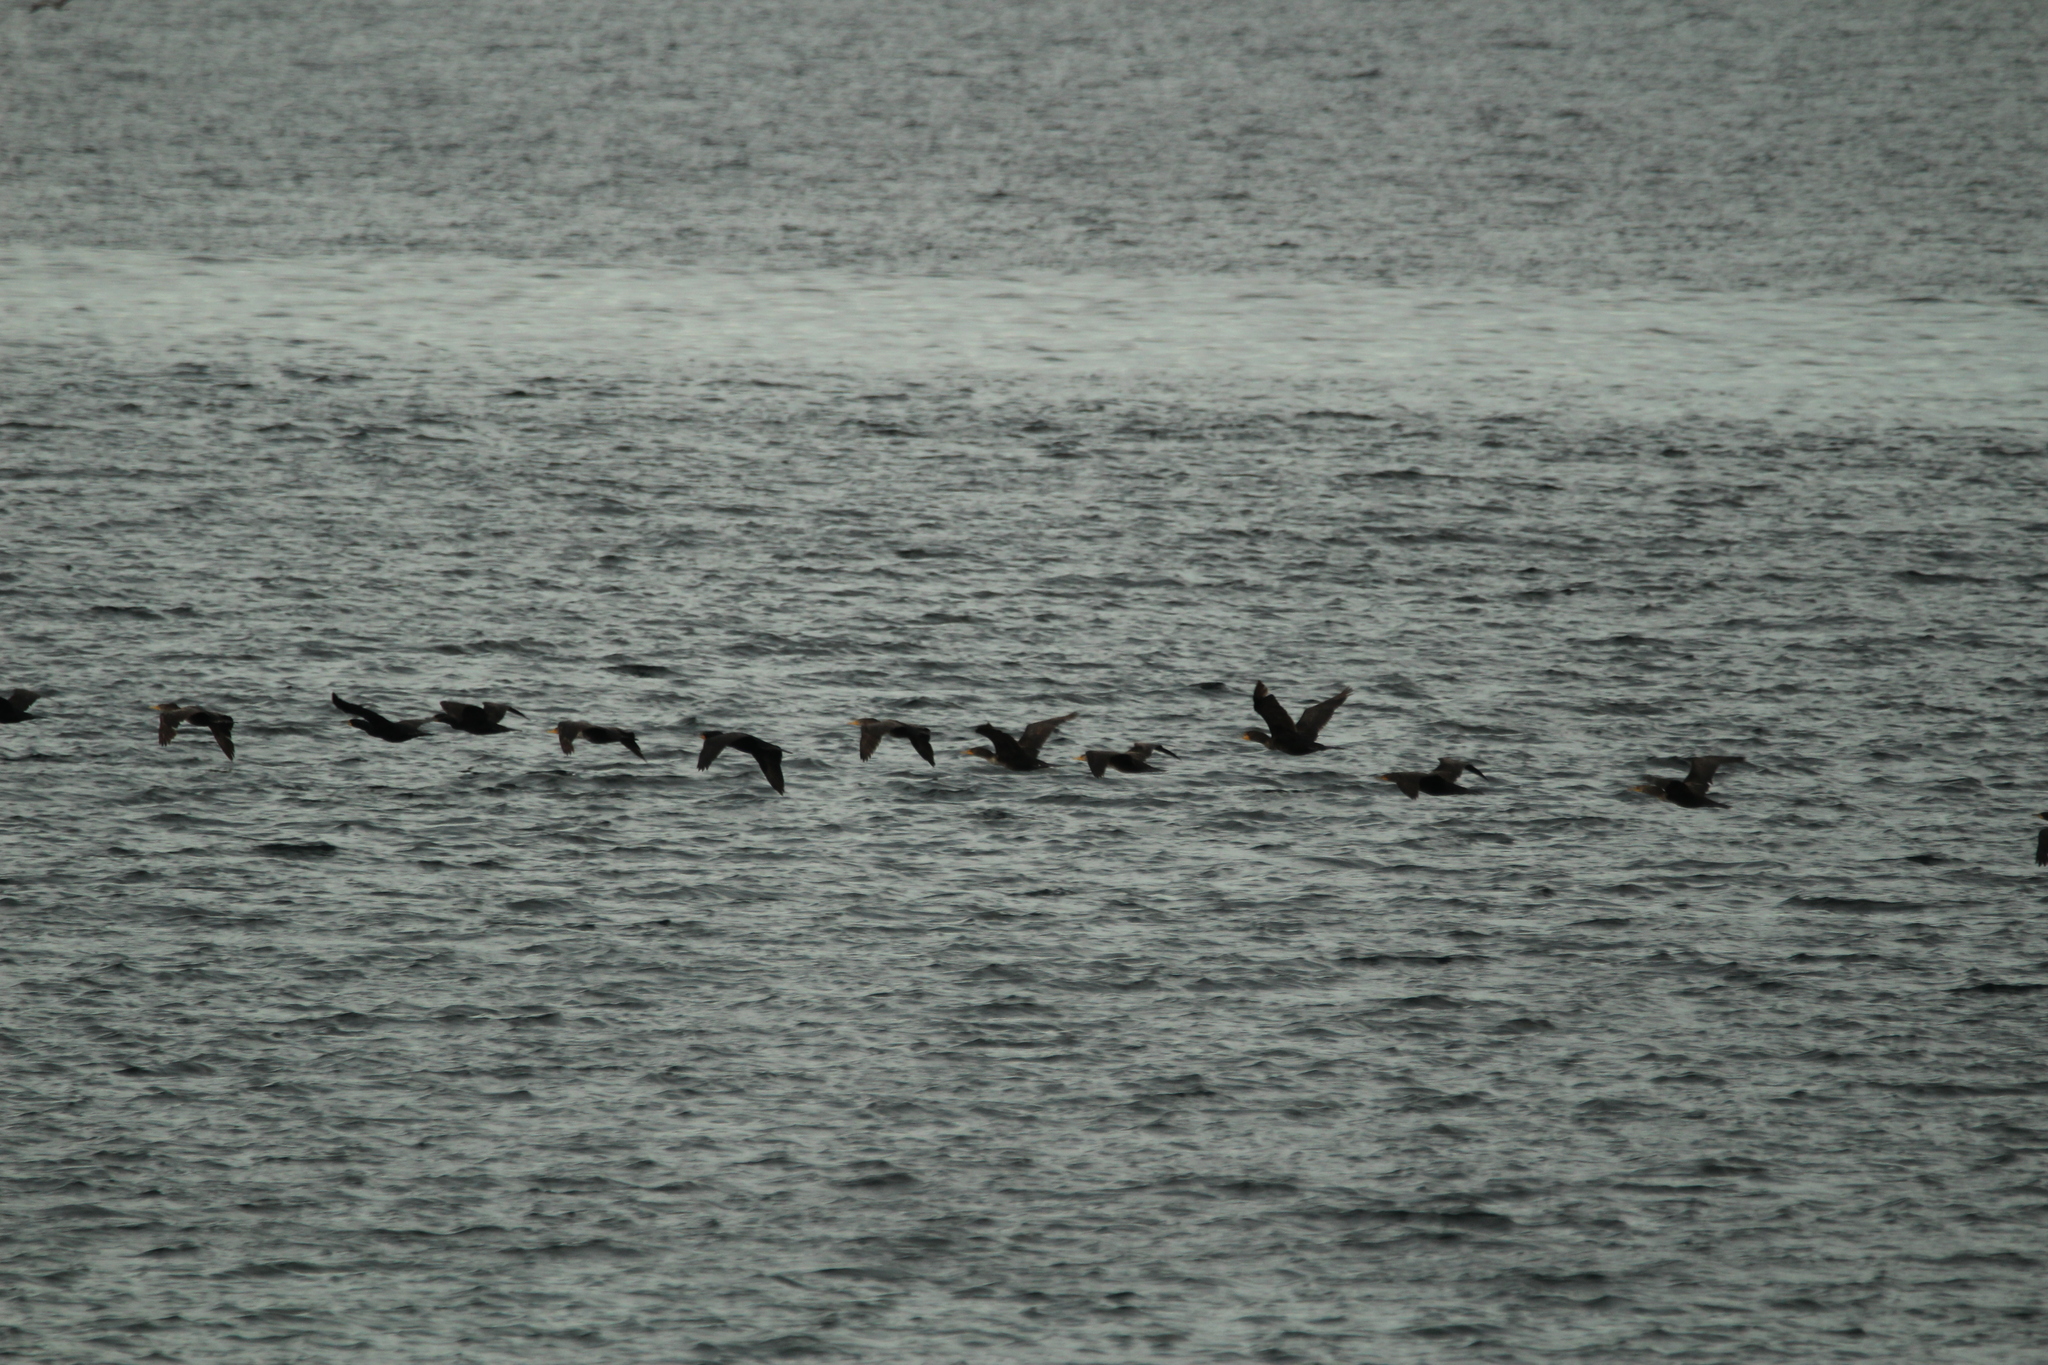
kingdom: Animalia
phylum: Chordata
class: Aves
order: Suliformes
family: Phalacrocoracidae
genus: Phalacrocorax
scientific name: Phalacrocorax auritus
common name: Double-crested cormorant
